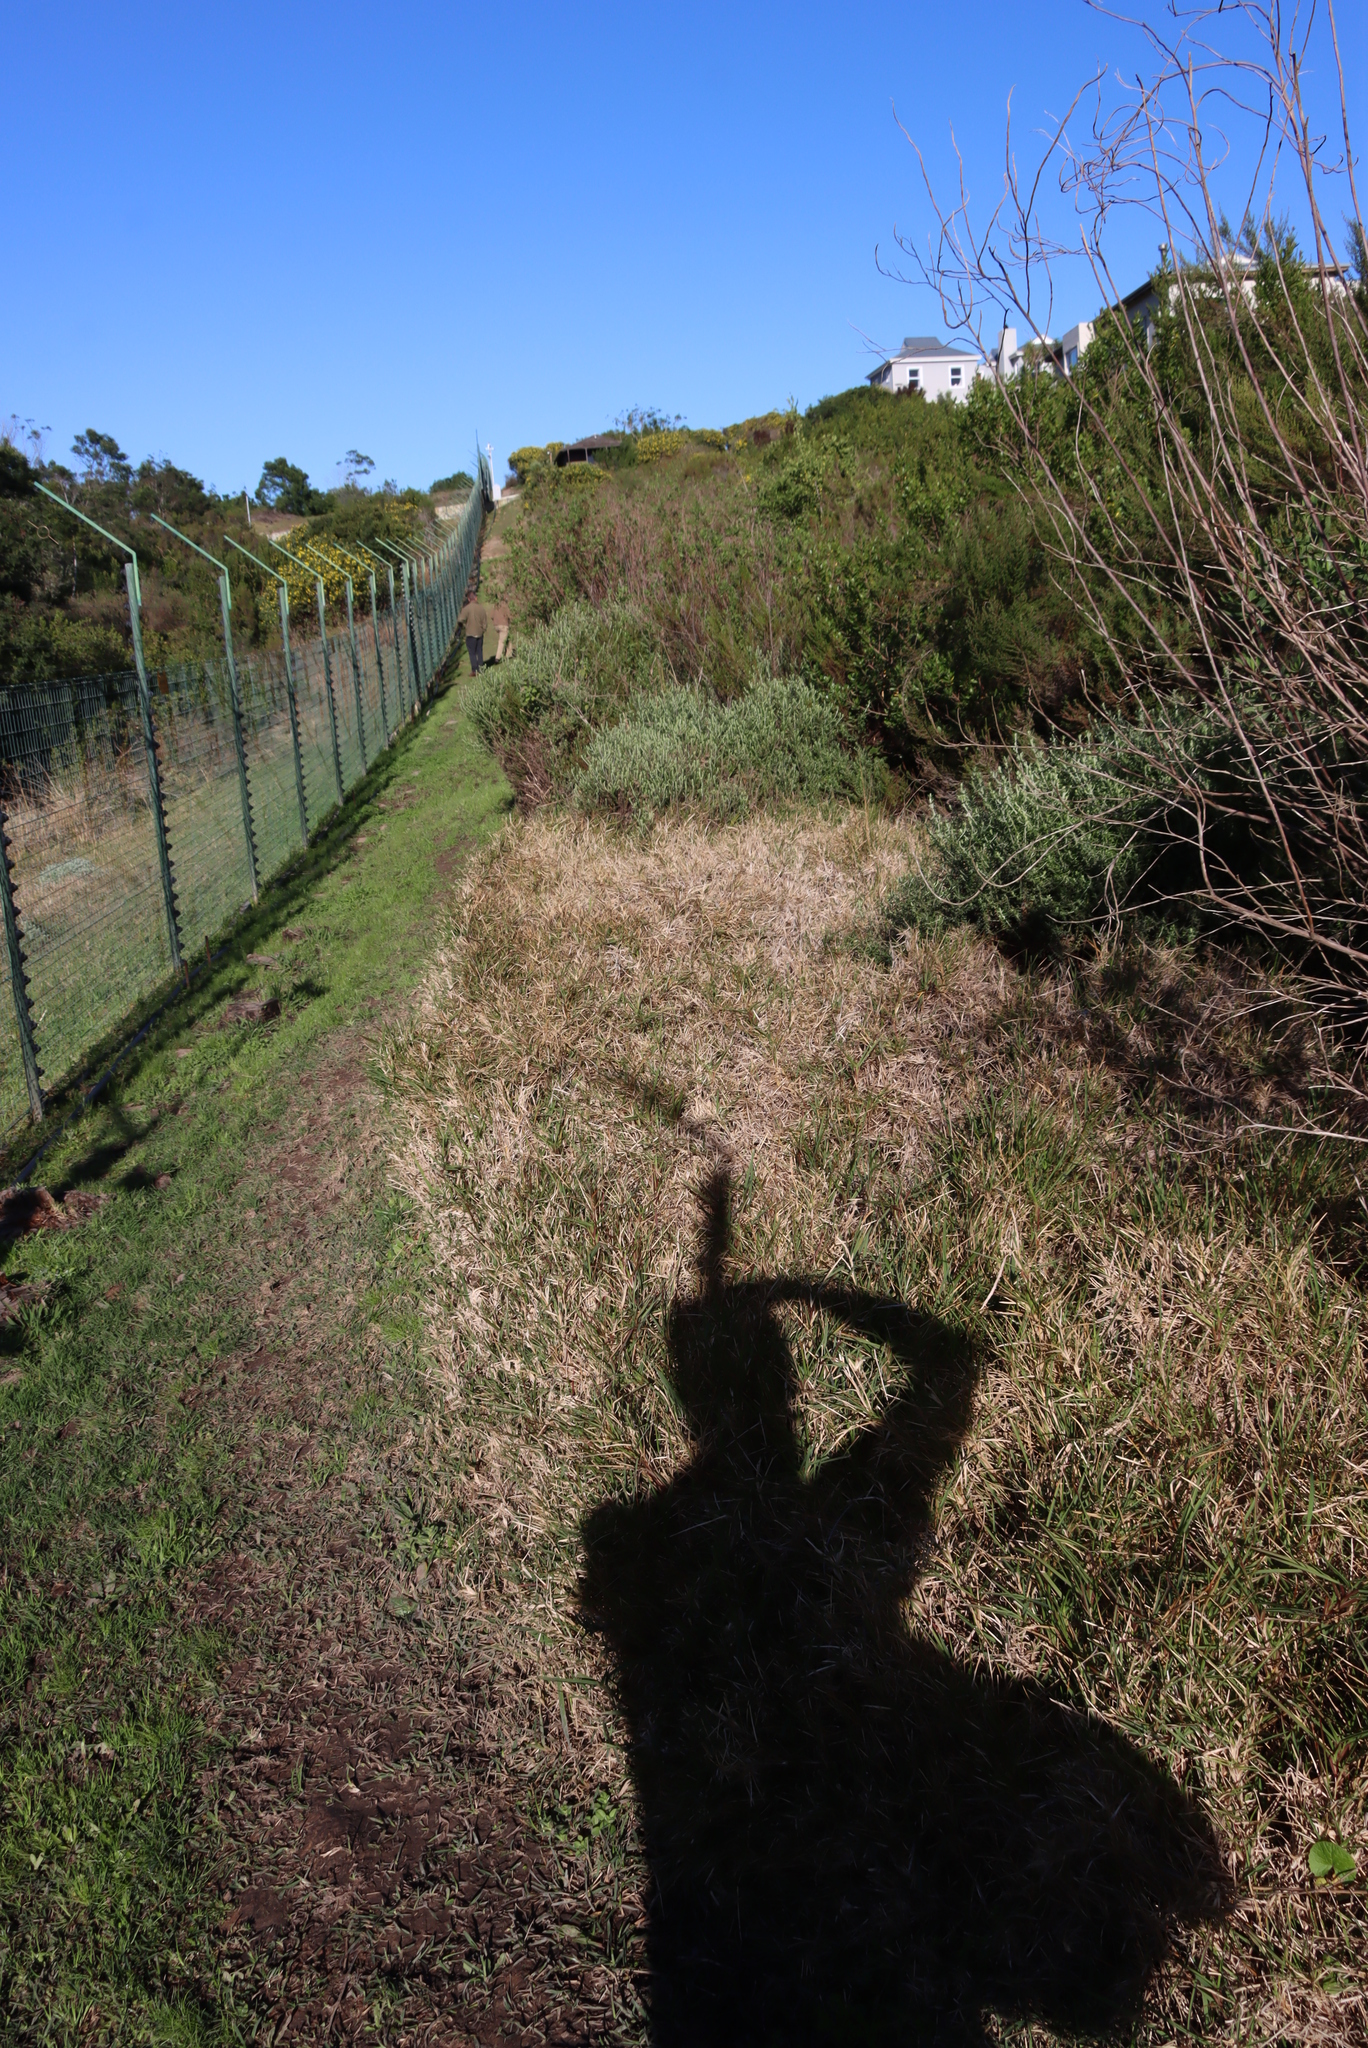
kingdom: Plantae
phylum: Tracheophyta
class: Liliopsida
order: Poales
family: Poaceae
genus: Stenotaphrum
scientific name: Stenotaphrum secundatum
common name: St. augustine grass
